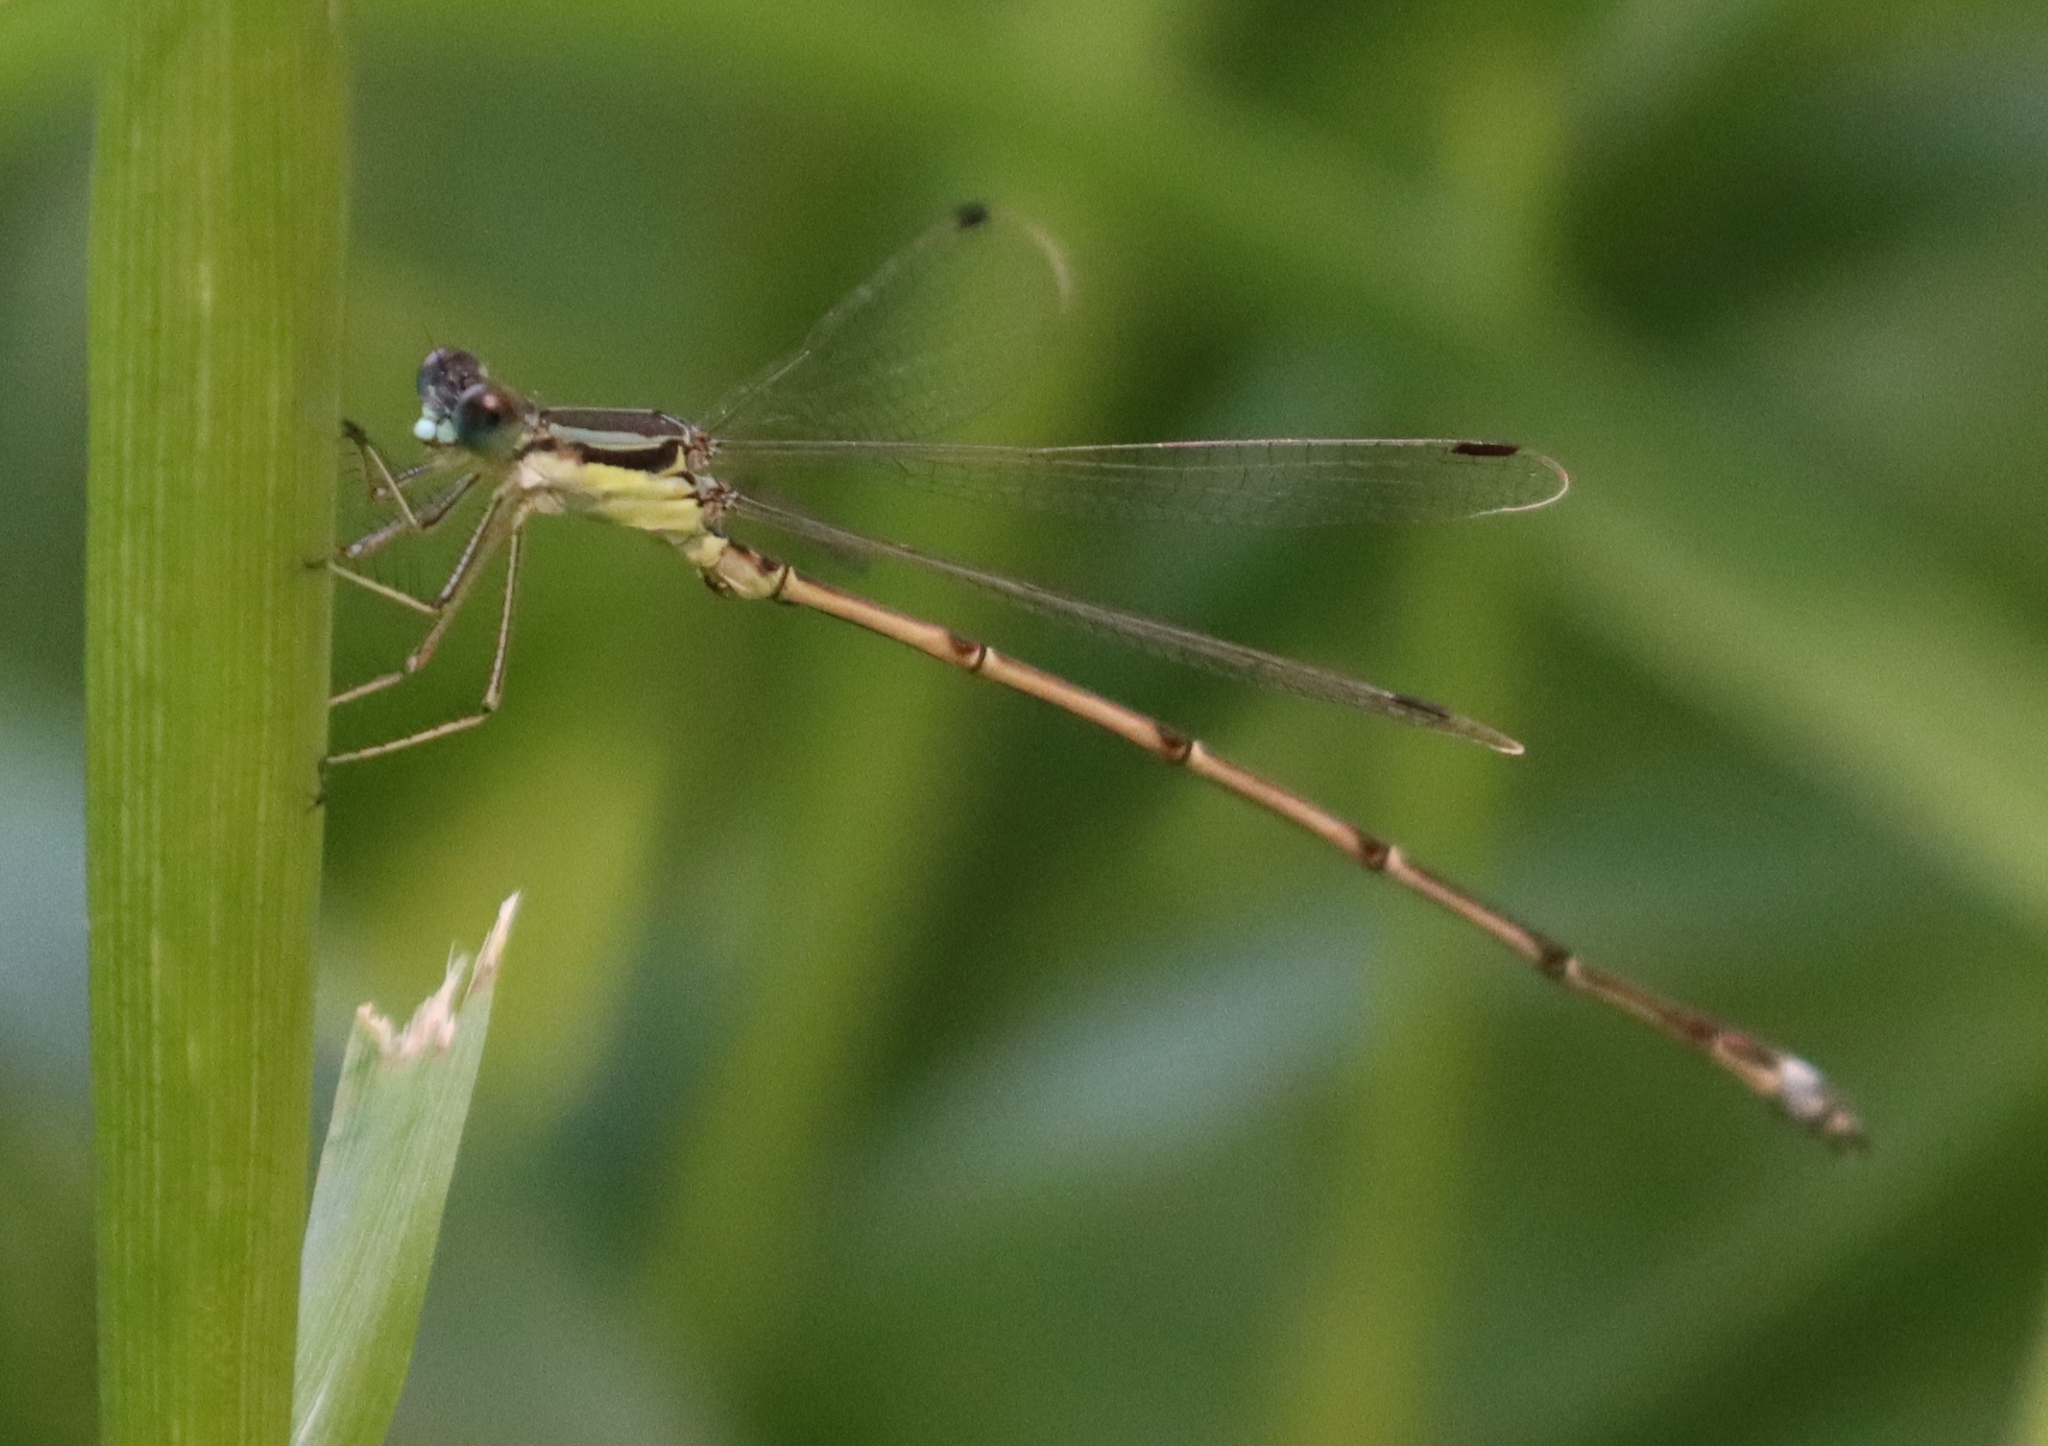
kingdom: Animalia
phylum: Arthropoda
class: Insecta
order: Odonata
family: Lestidae
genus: Lestes
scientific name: Lestes rectangularis
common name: Slender spreadwing
